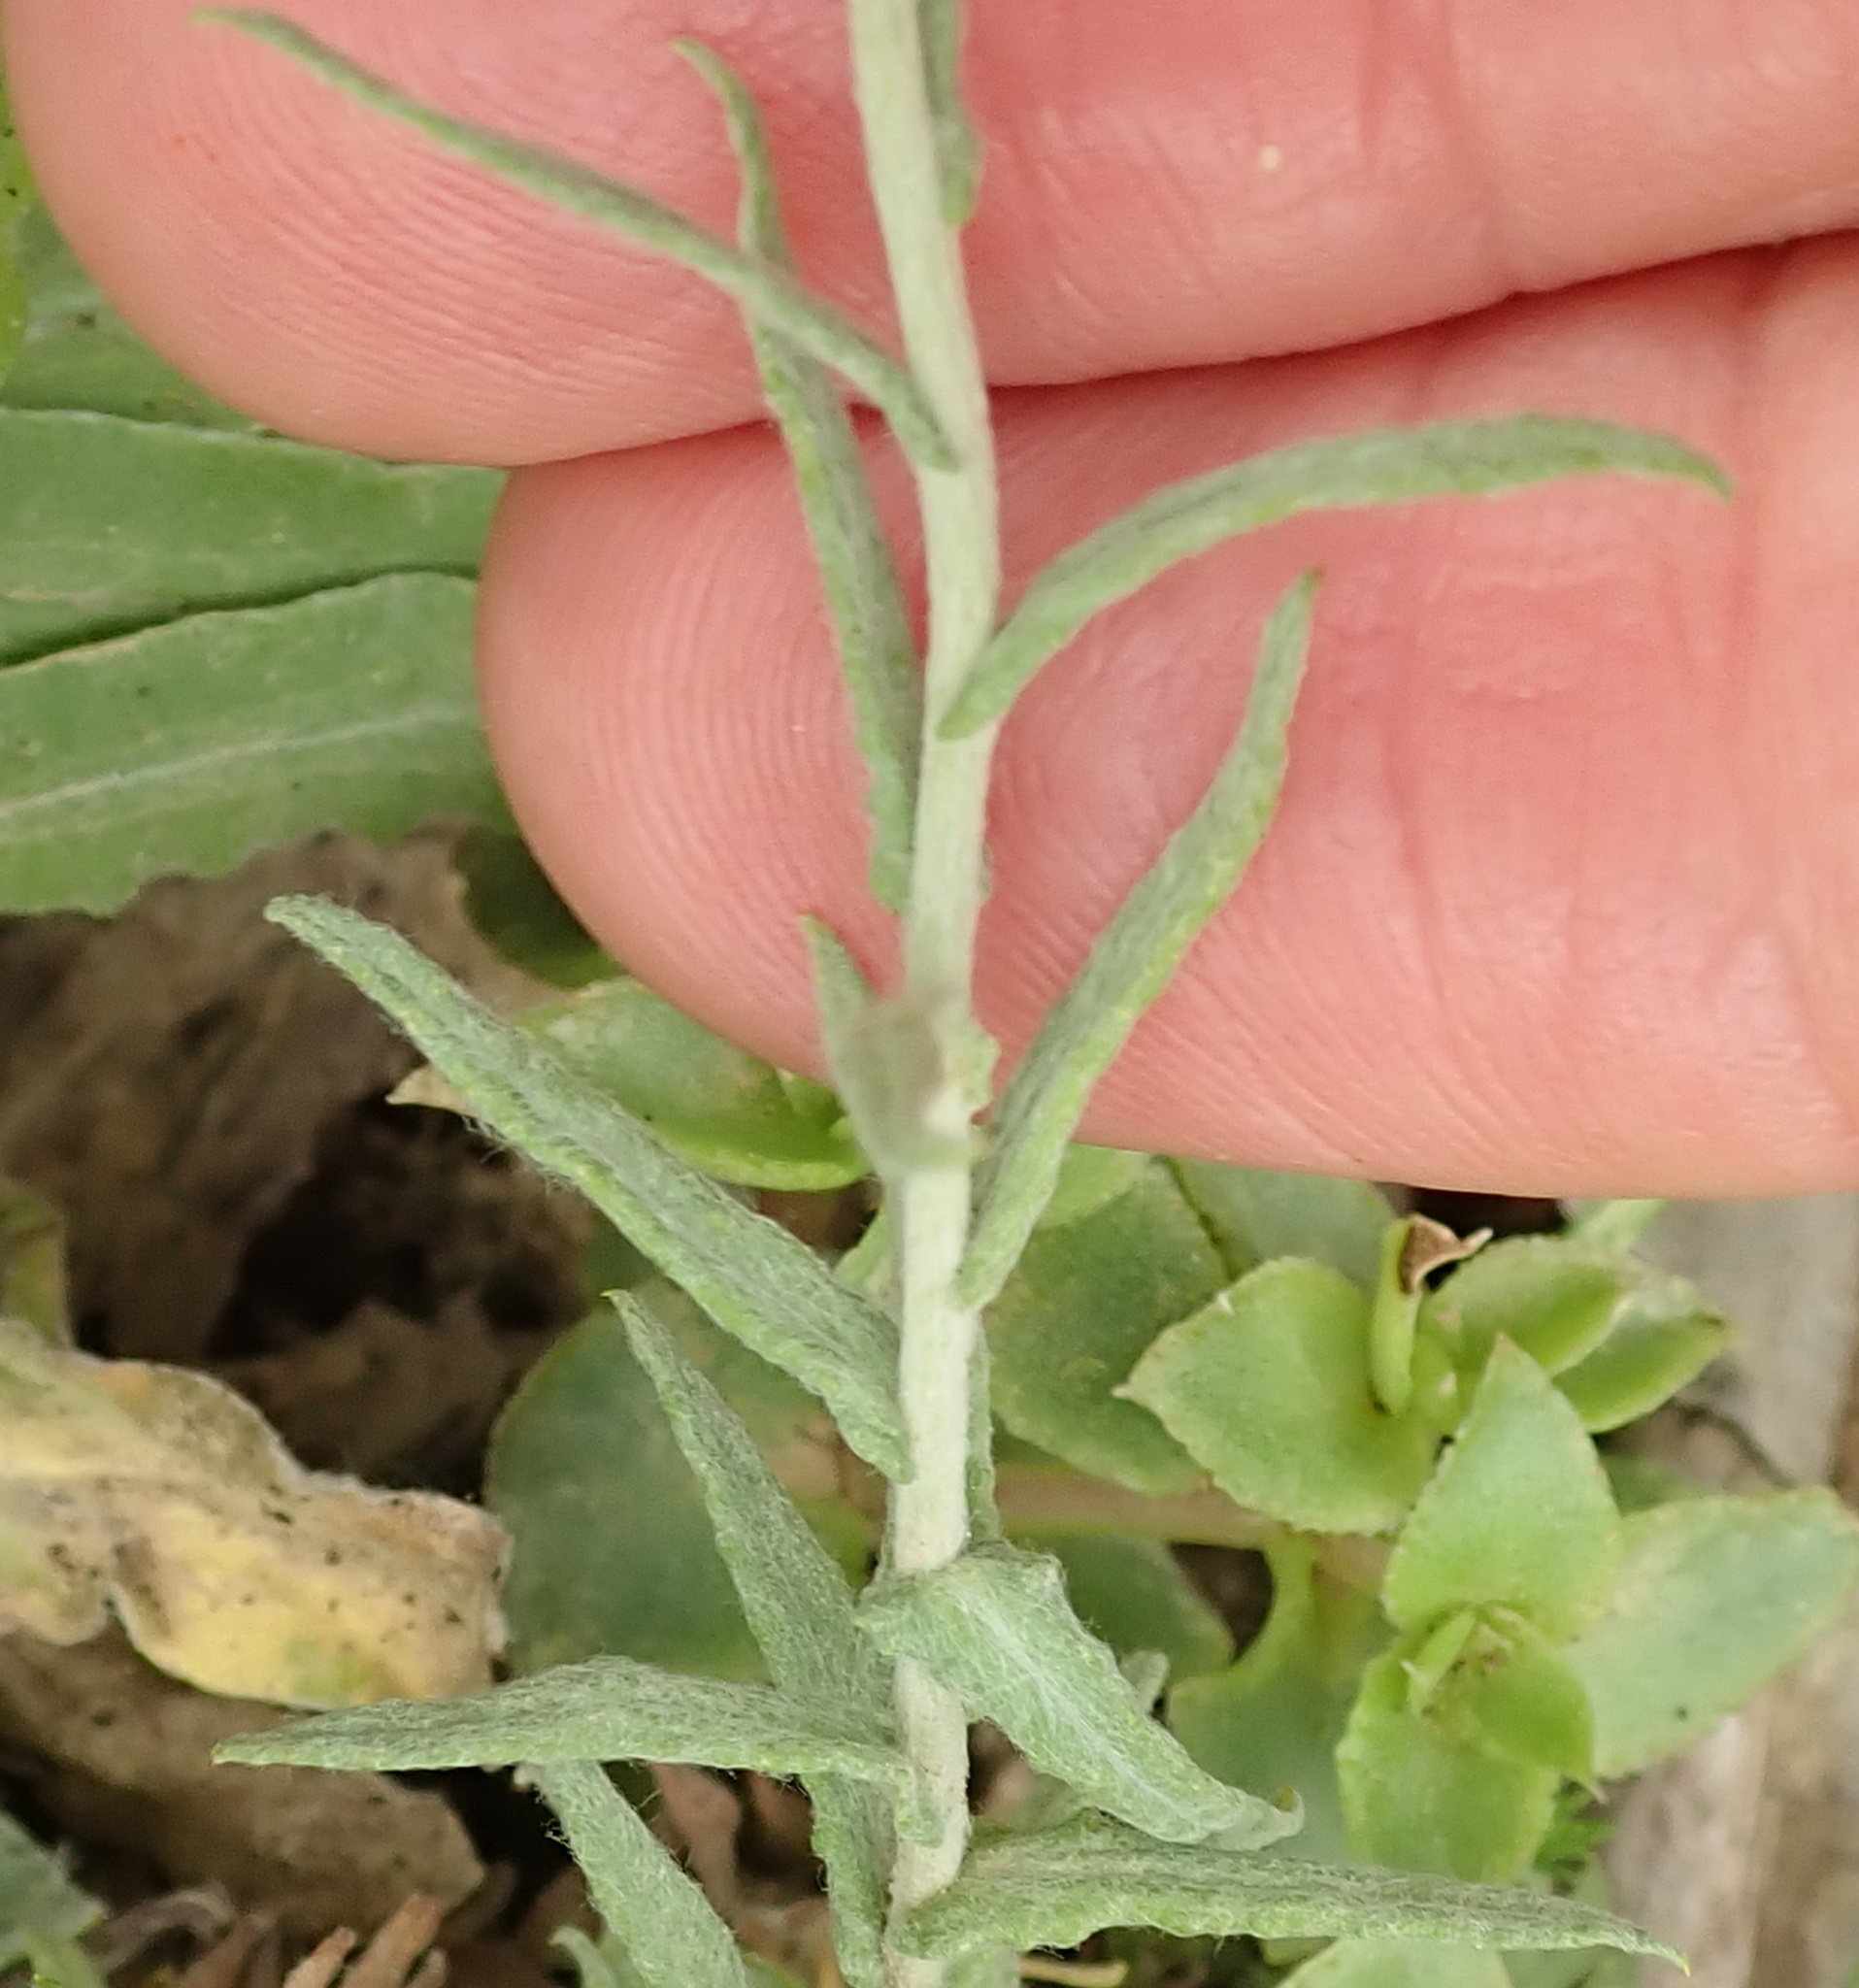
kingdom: Plantae
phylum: Tracheophyta
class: Magnoliopsida
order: Asterales
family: Asteraceae
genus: Helichrysum
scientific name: Helichrysum splendidum
